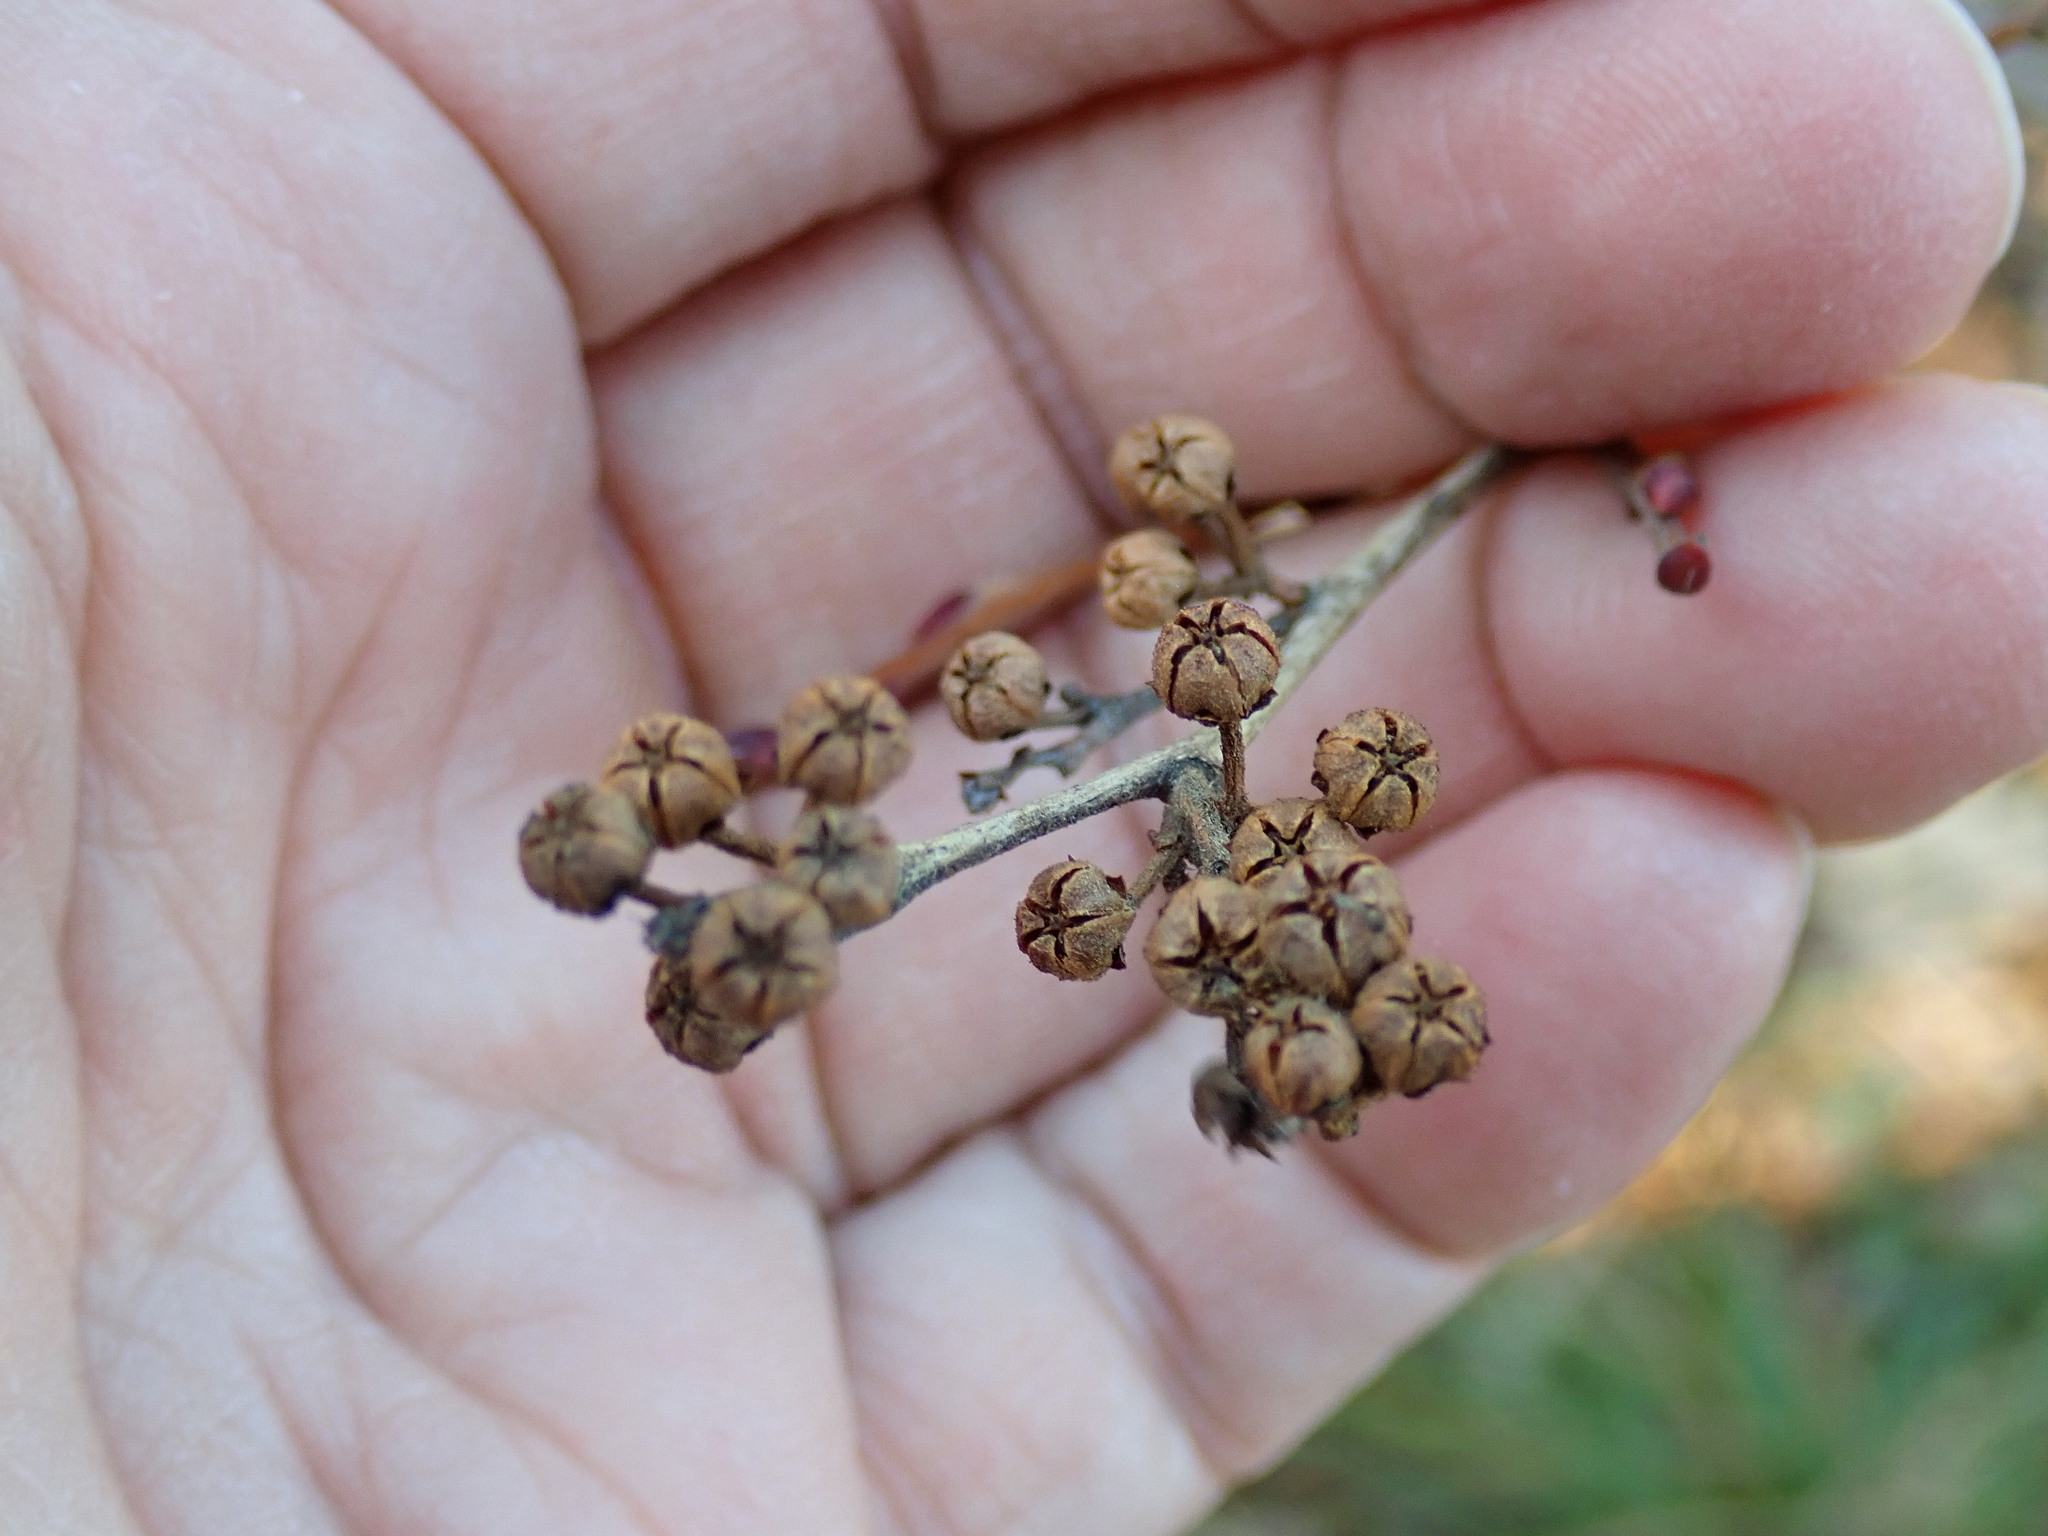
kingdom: Plantae
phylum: Tracheophyta
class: Magnoliopsida
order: Ericales
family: Ericaceae
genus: Lyonia
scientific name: Lyonia ligustrina
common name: Maleberry
